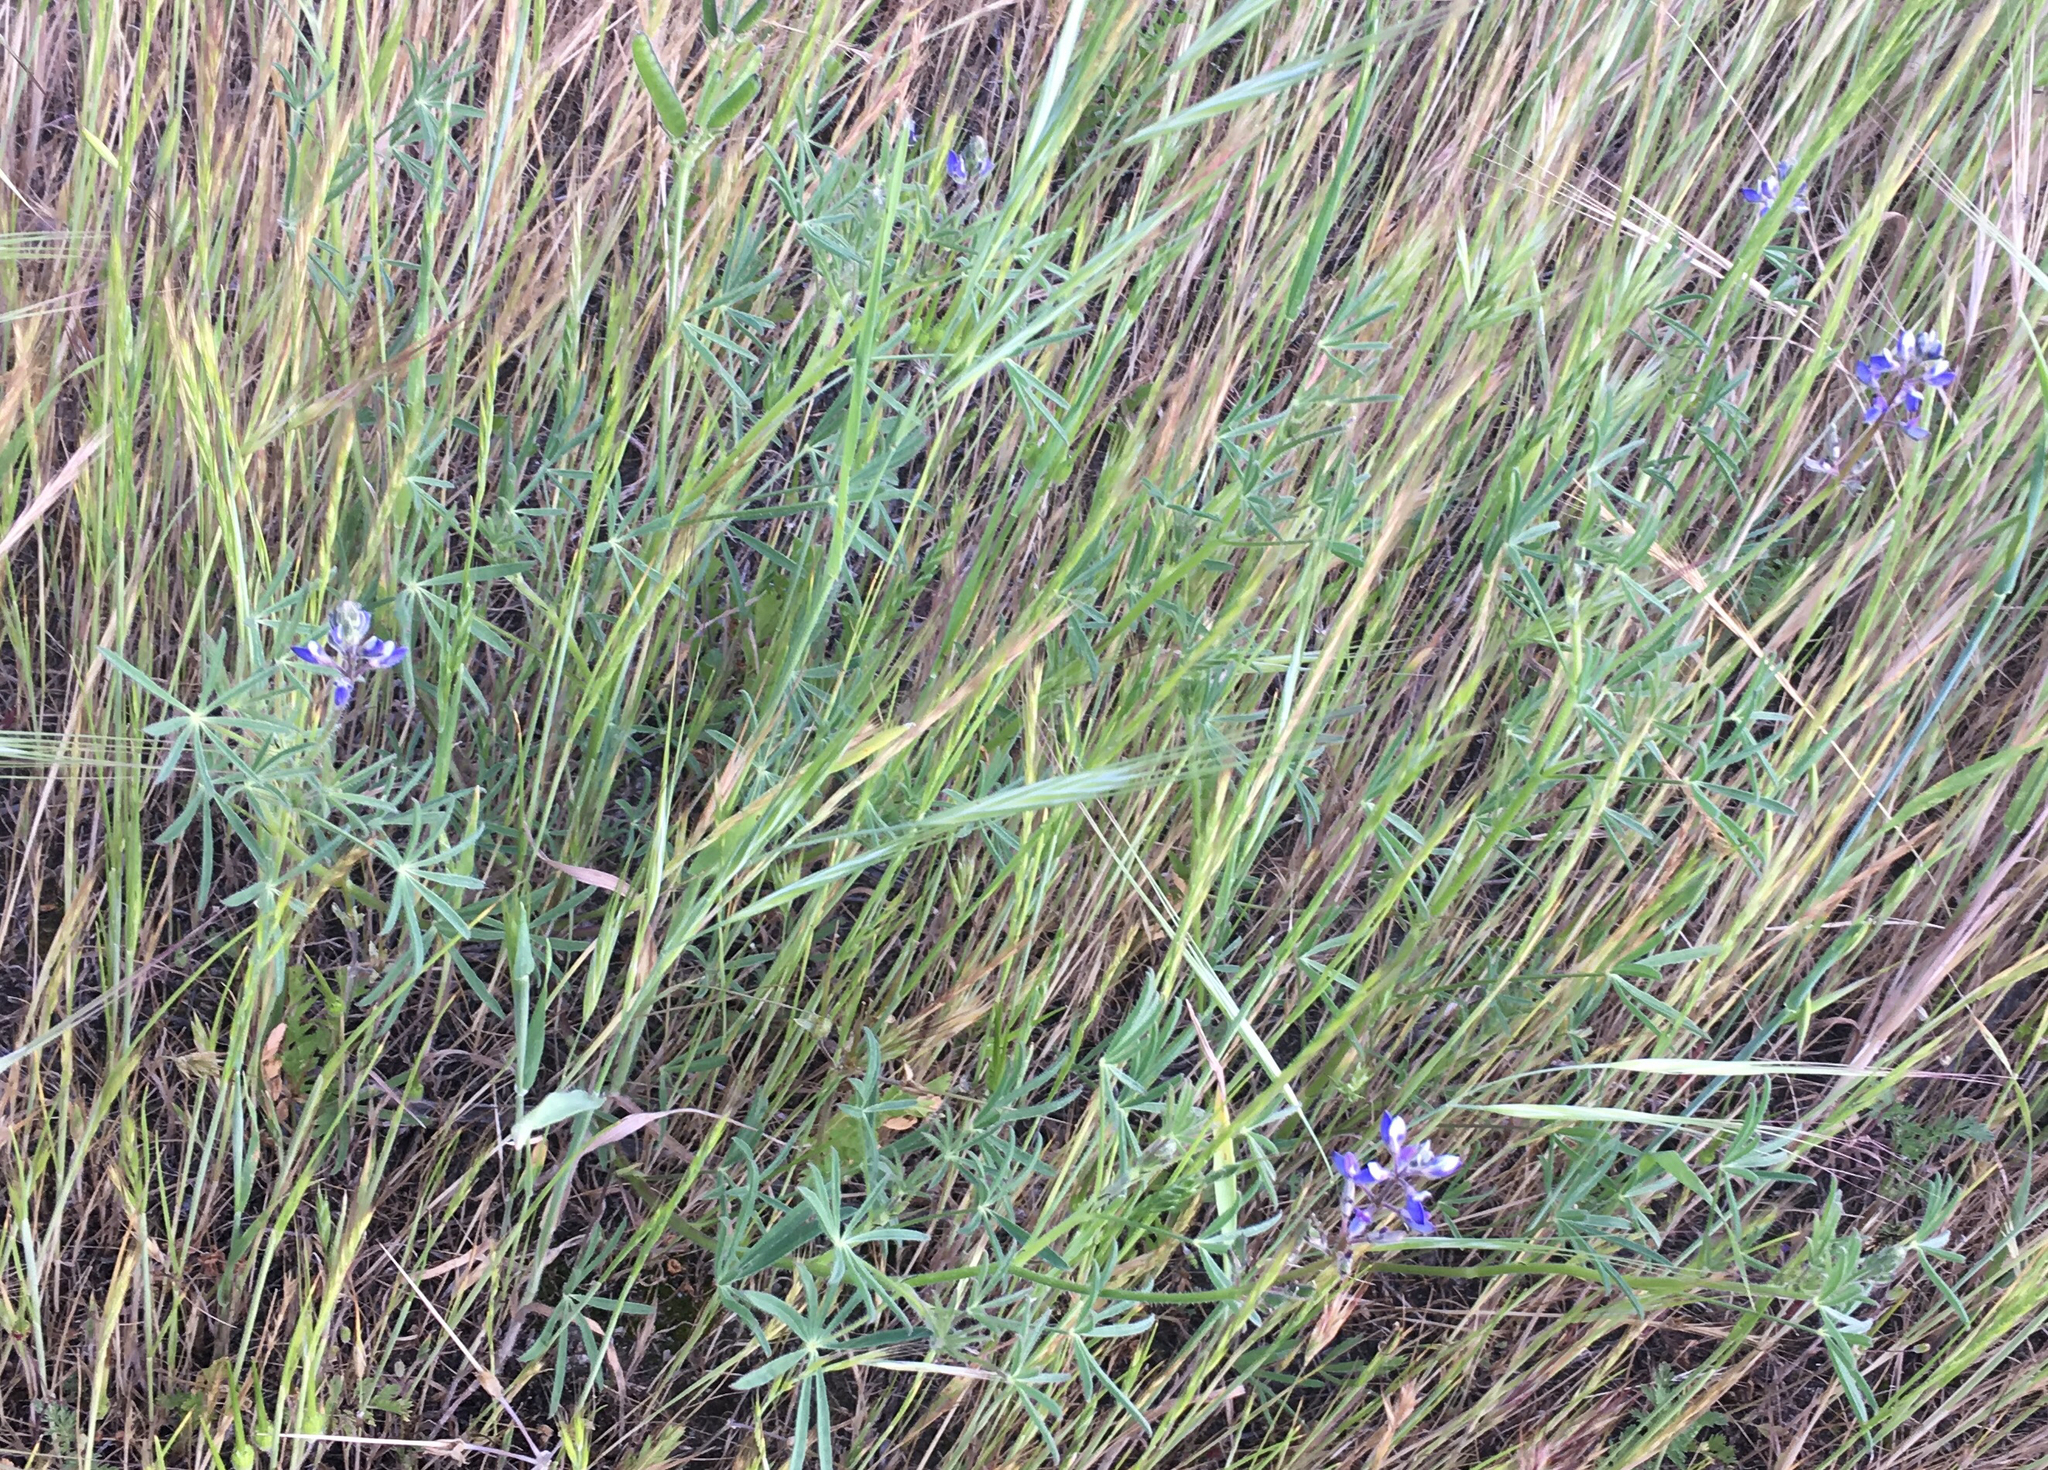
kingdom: Plantae
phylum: Tracheophyta
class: Magnoliopsida
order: Fabales
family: Fabaceae
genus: Lupinus
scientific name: Lupinus bicolor
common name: Miniature lupine
